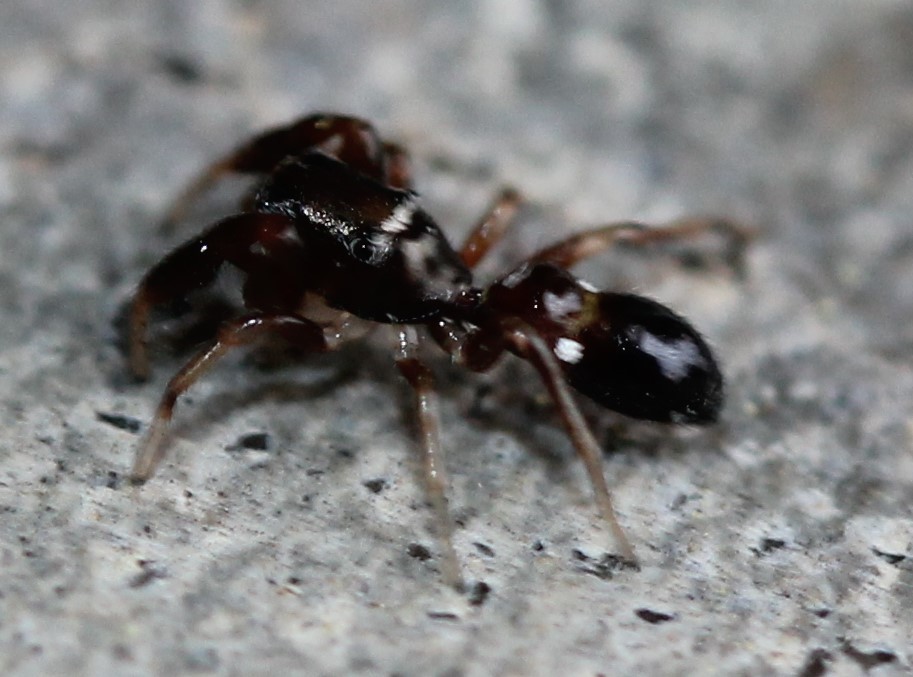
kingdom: Animalia
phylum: Arthropoda
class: Arachnida
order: Araneae
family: Salticidae
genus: Synageles
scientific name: Synageles
